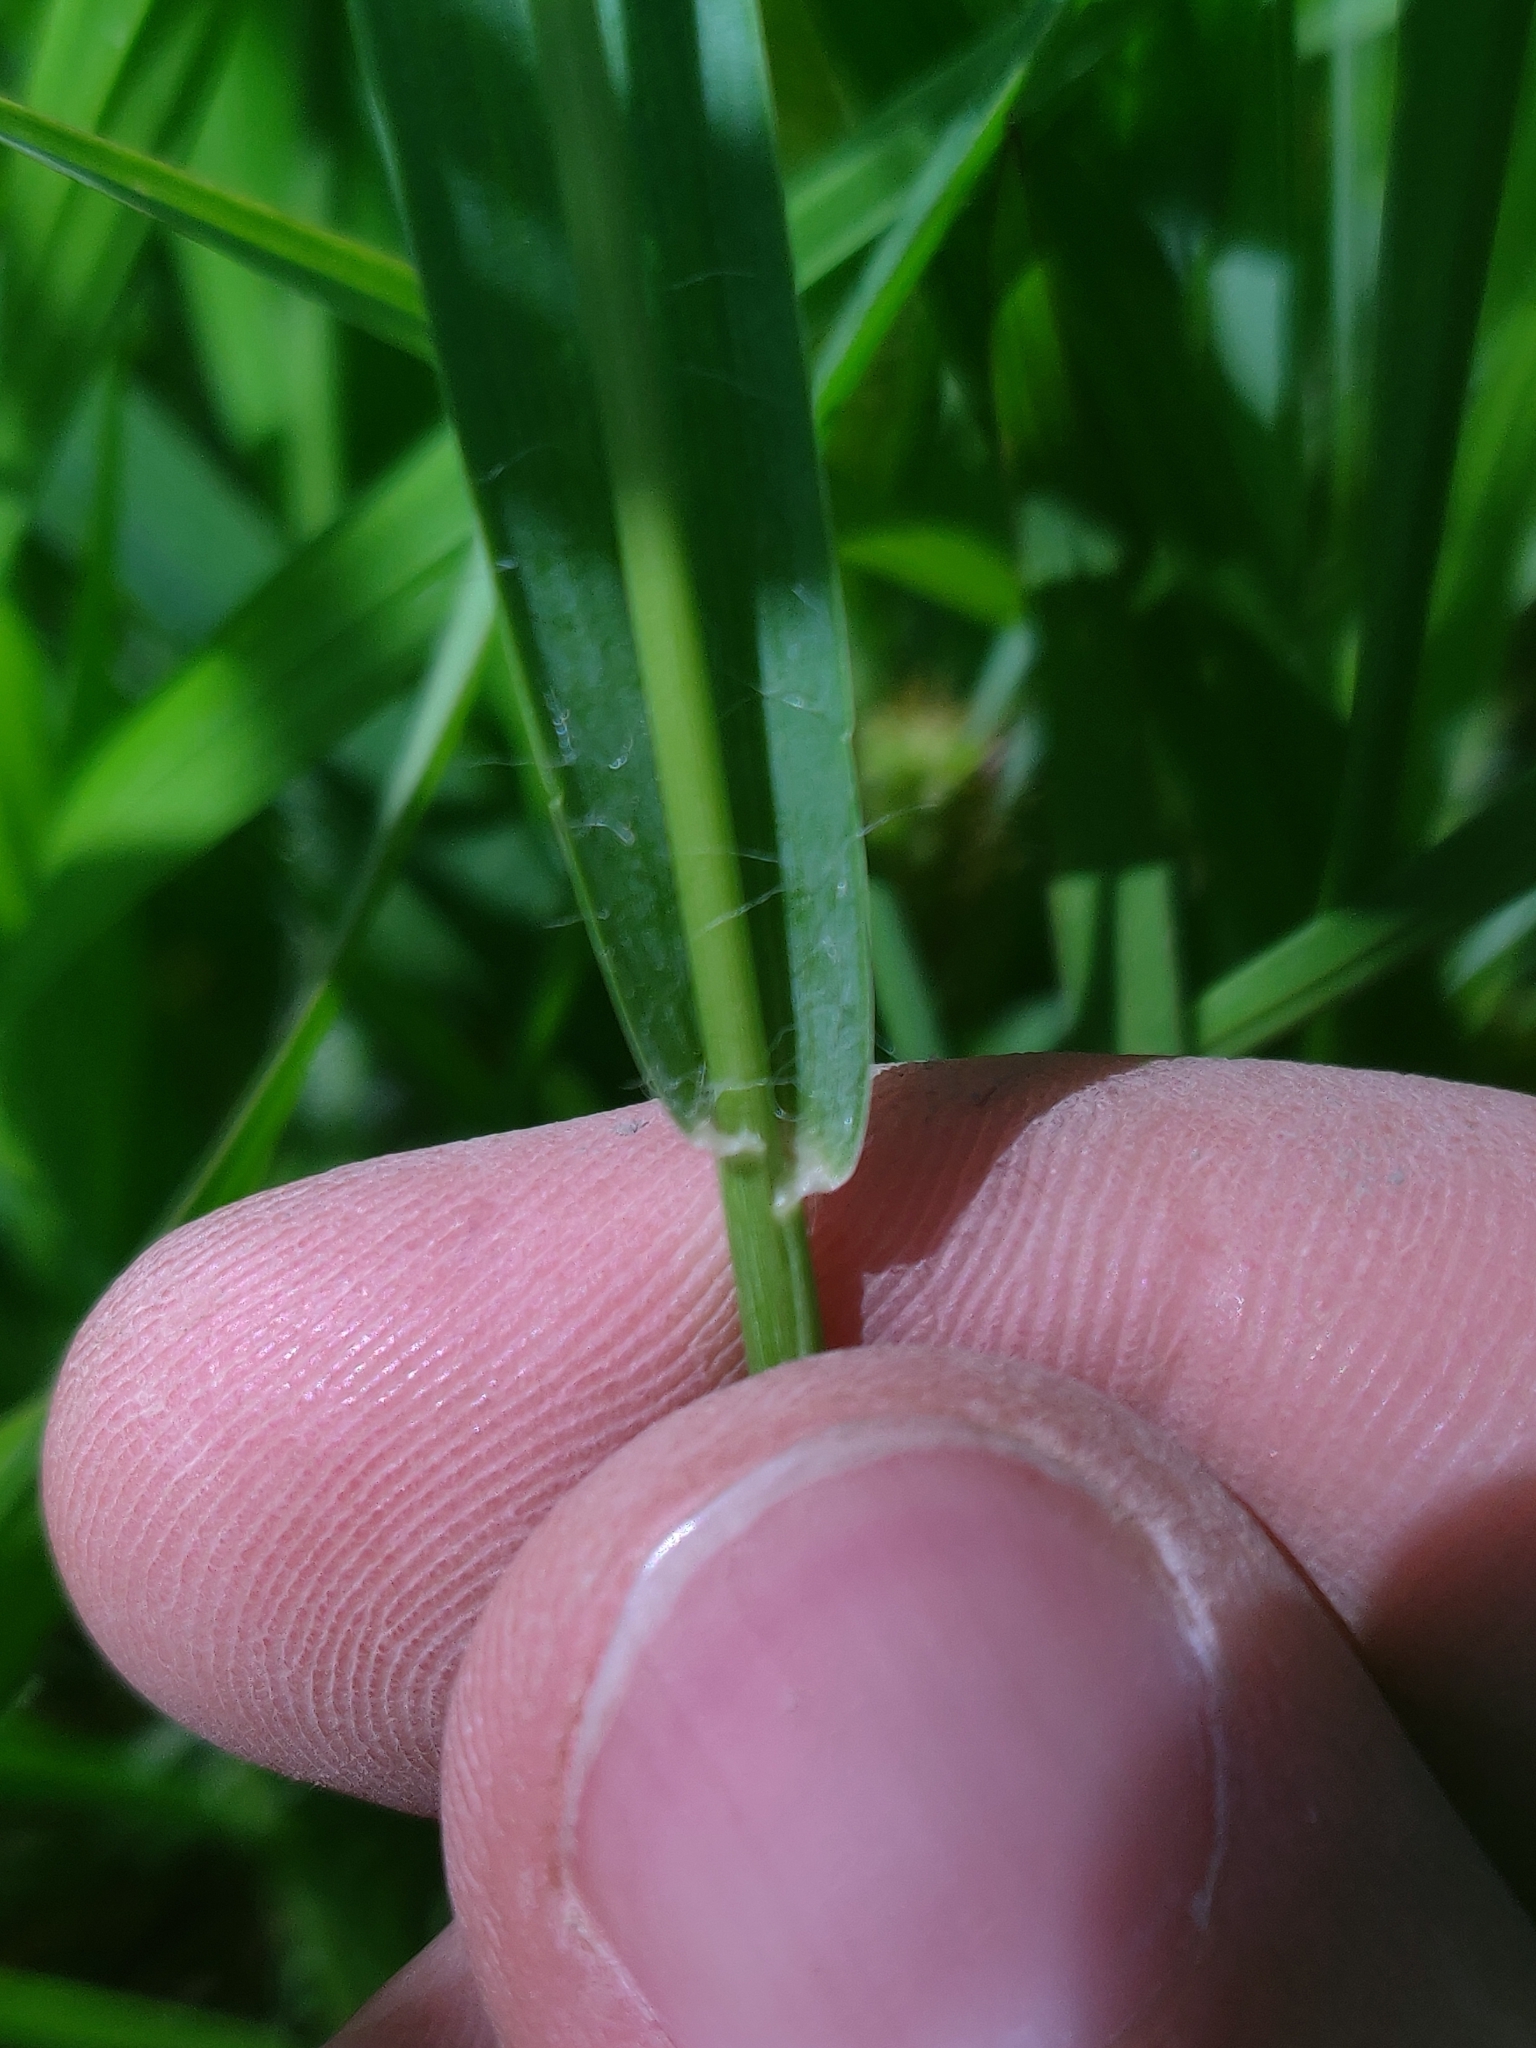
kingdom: Plantae
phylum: Tracheophyta
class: Liliopsida
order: Poales
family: Poaceae
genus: Setaria
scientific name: Setaria pumila
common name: Yellow bristle-grass
